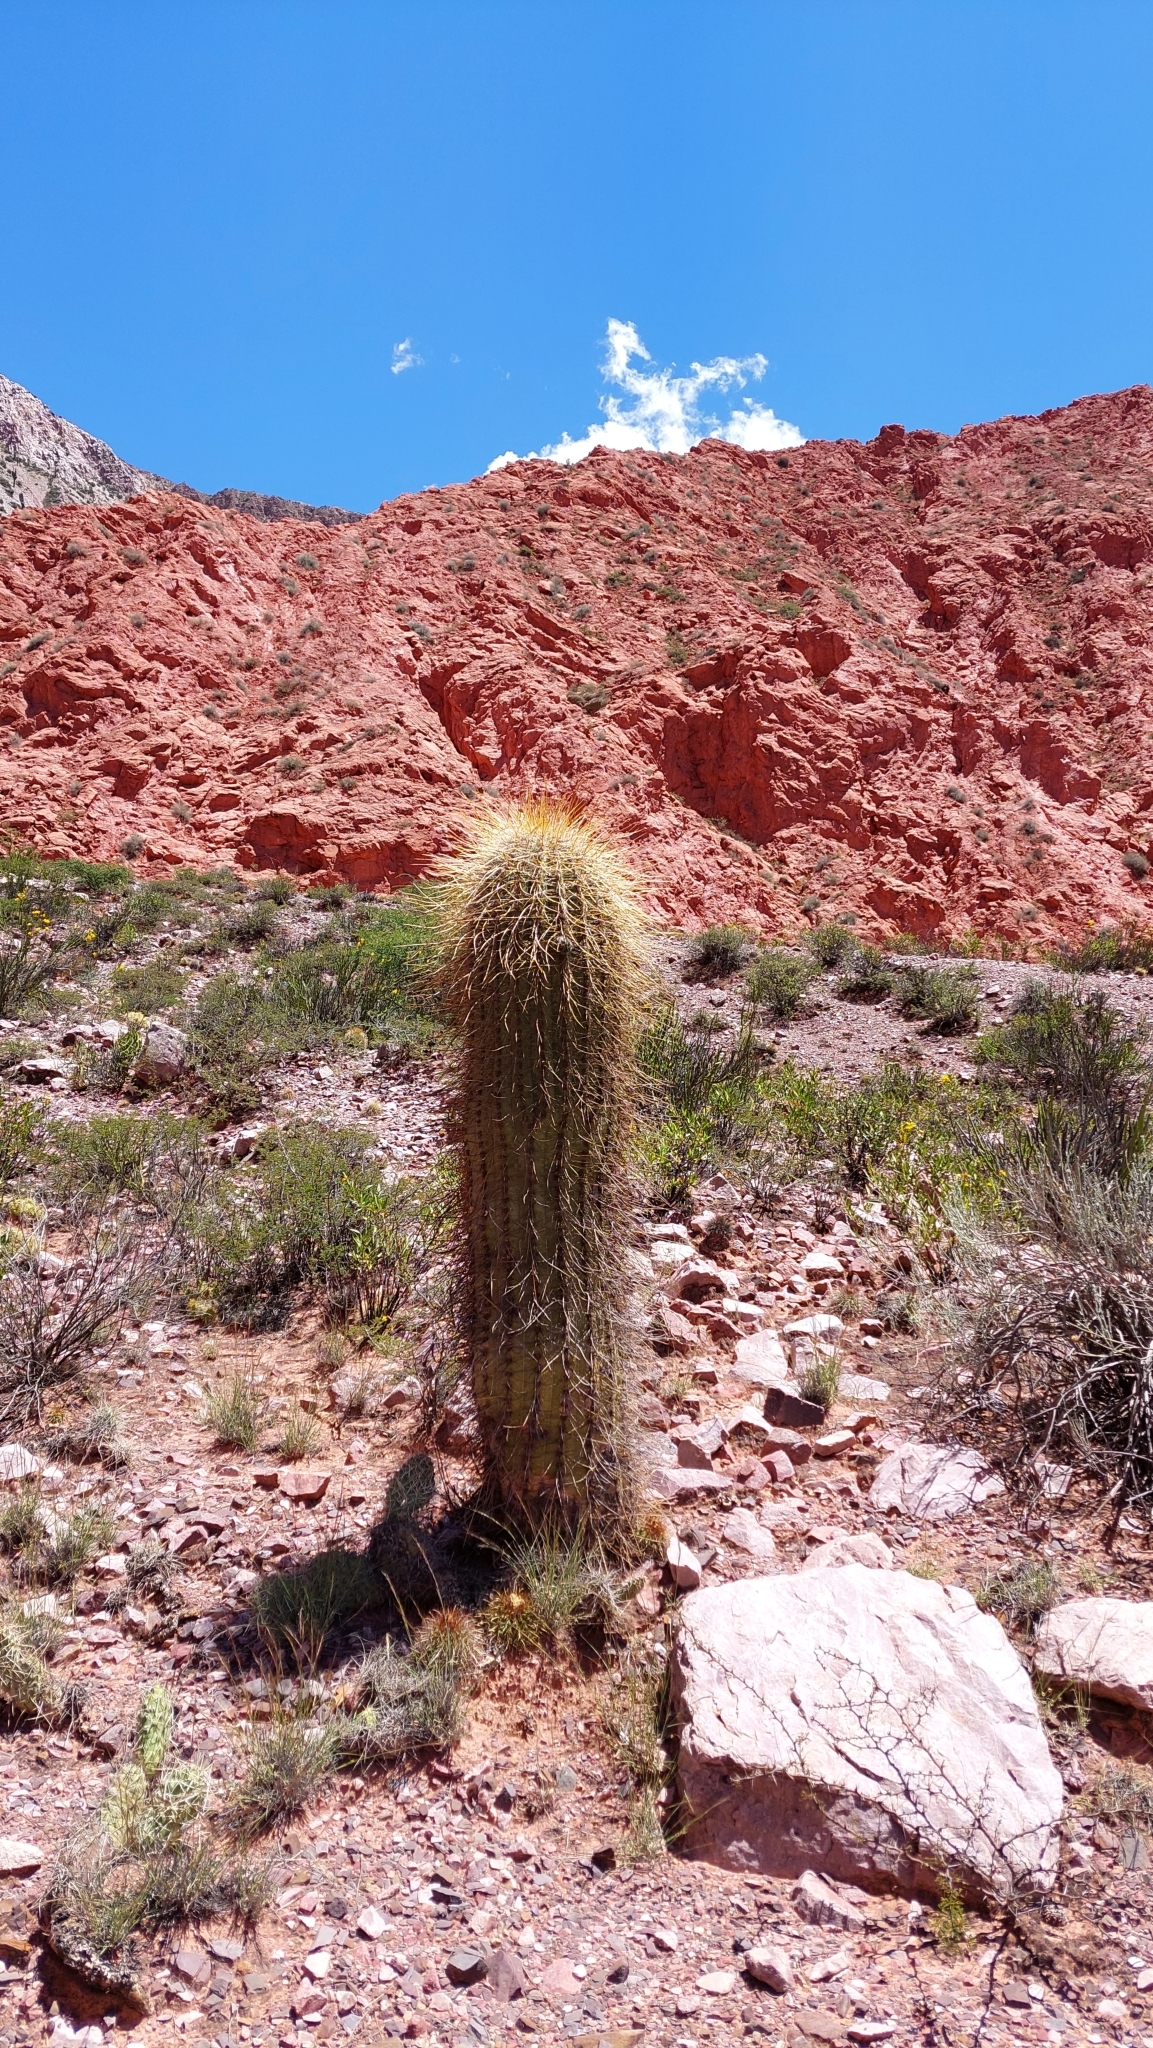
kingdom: Plantae
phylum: Tracheophyta
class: Magnoliopsida
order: Caryophyllales
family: Cactaceae
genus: Leucostele
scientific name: Leucostele atacamensis
